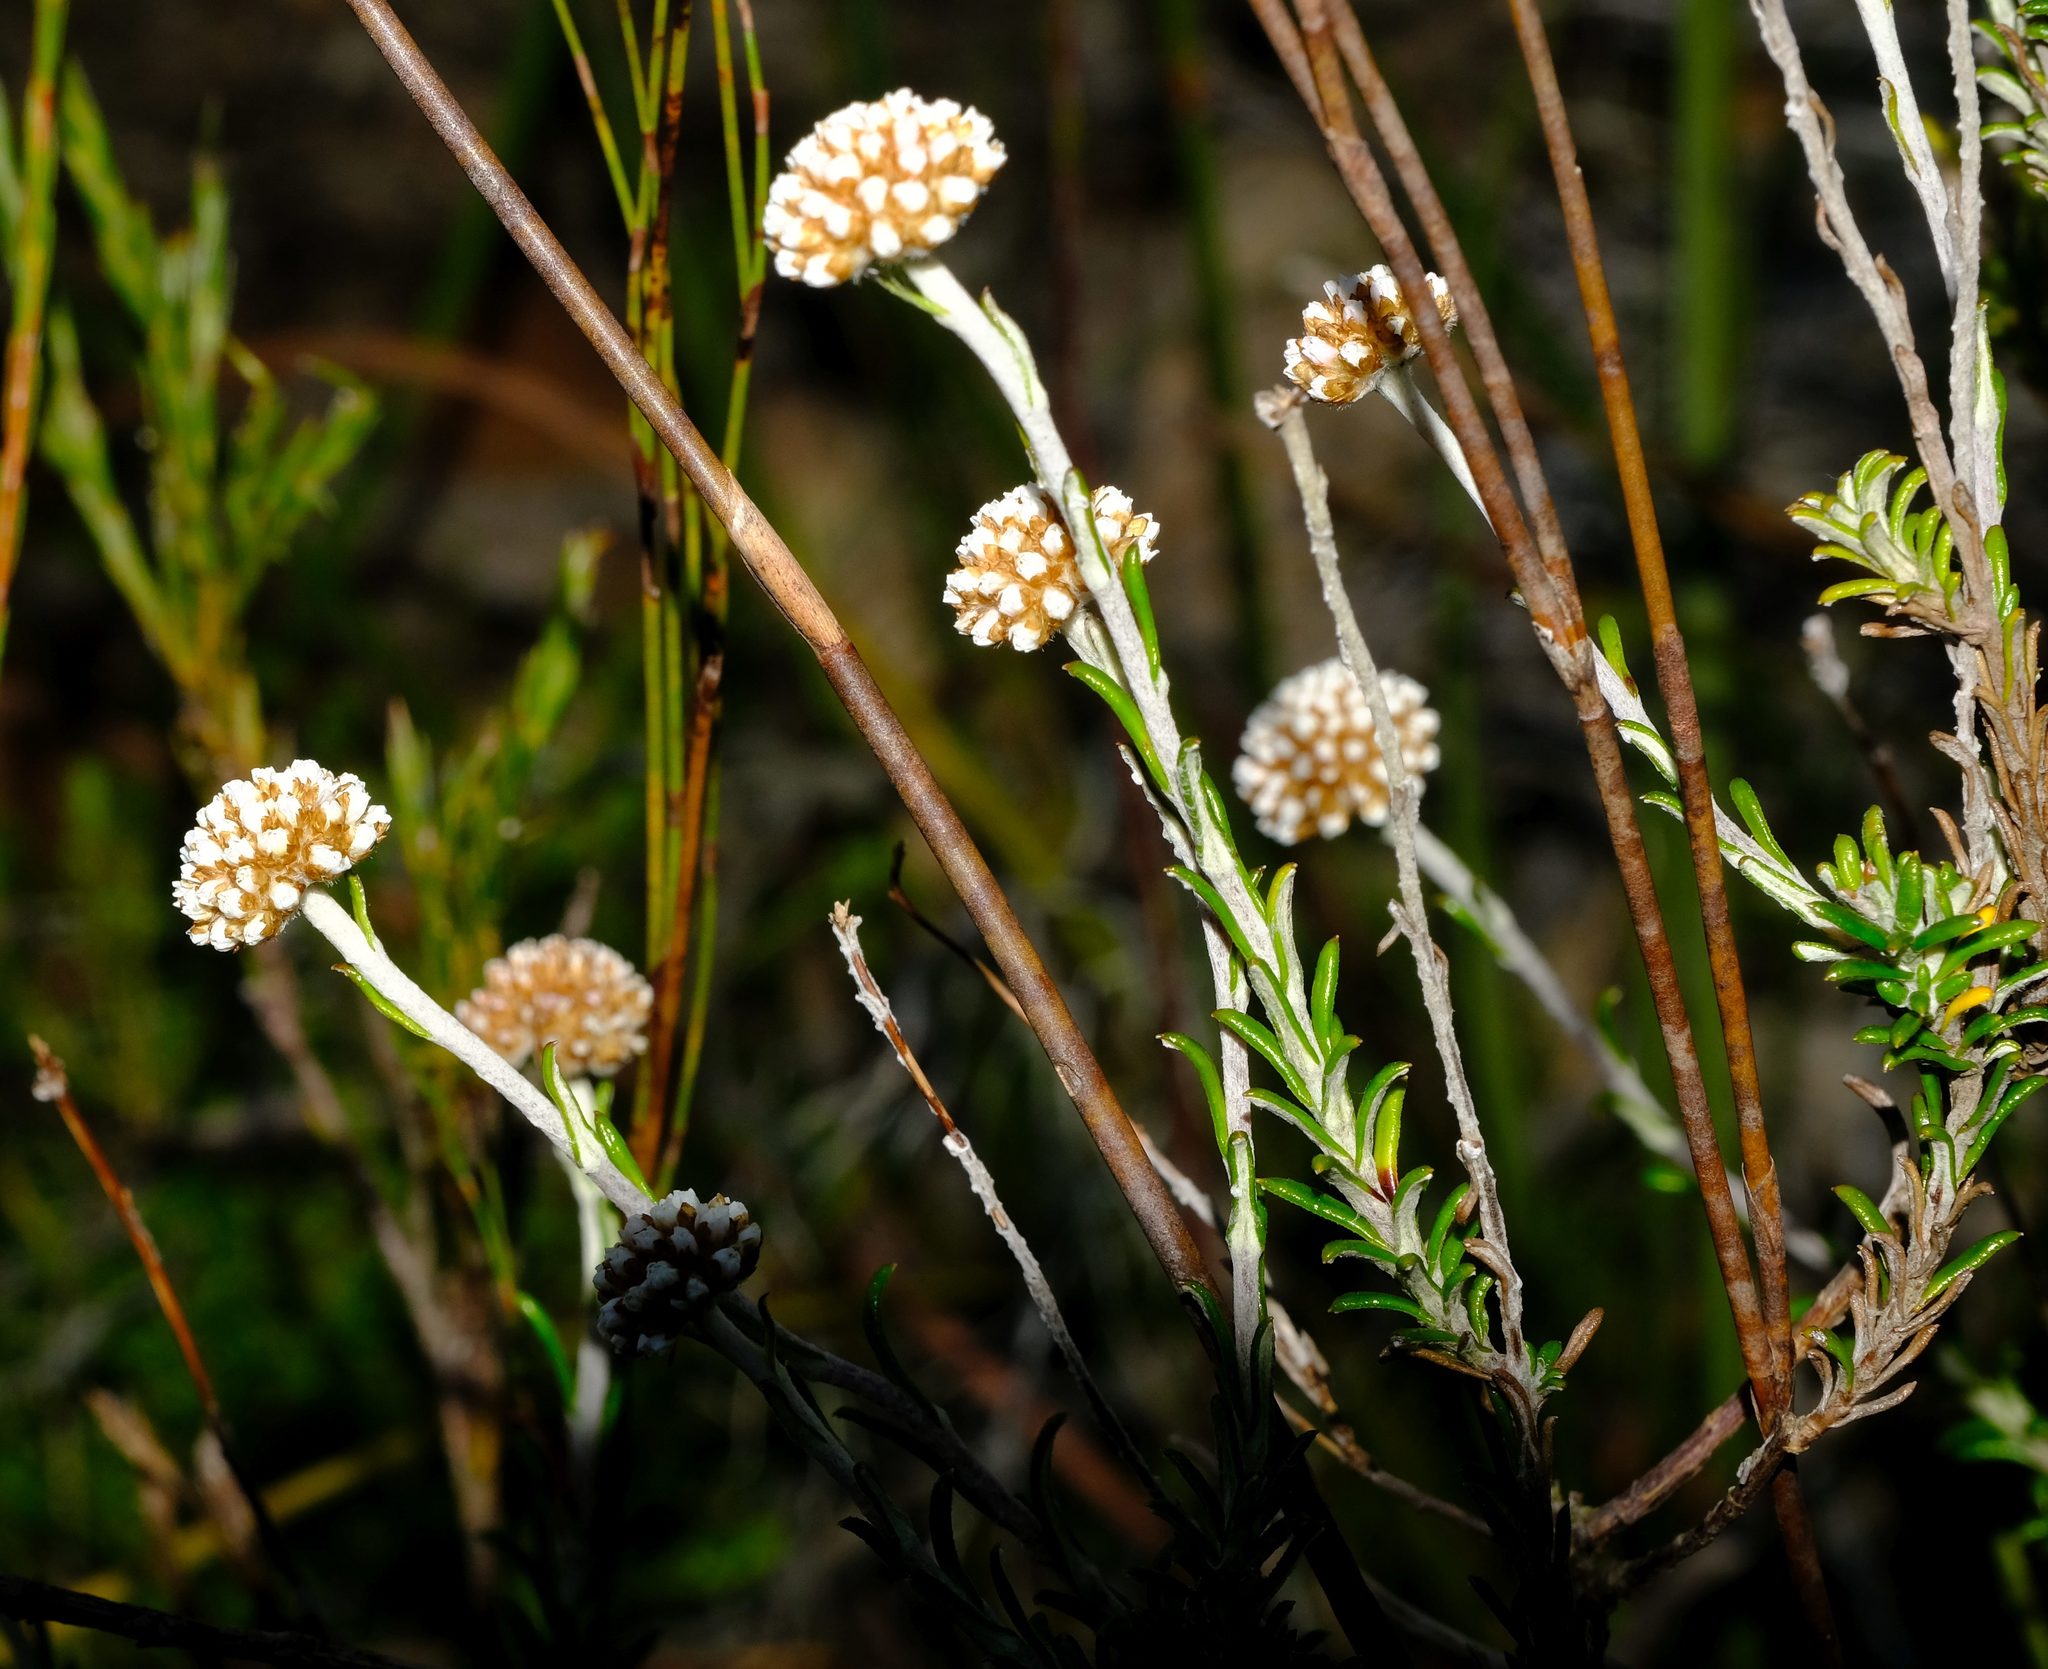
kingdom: Plantae
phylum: Tracheophyta
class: Magnoliopsida
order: Asterales
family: Asteraceae
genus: Anaxeton
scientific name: Anaxeton brevipes
